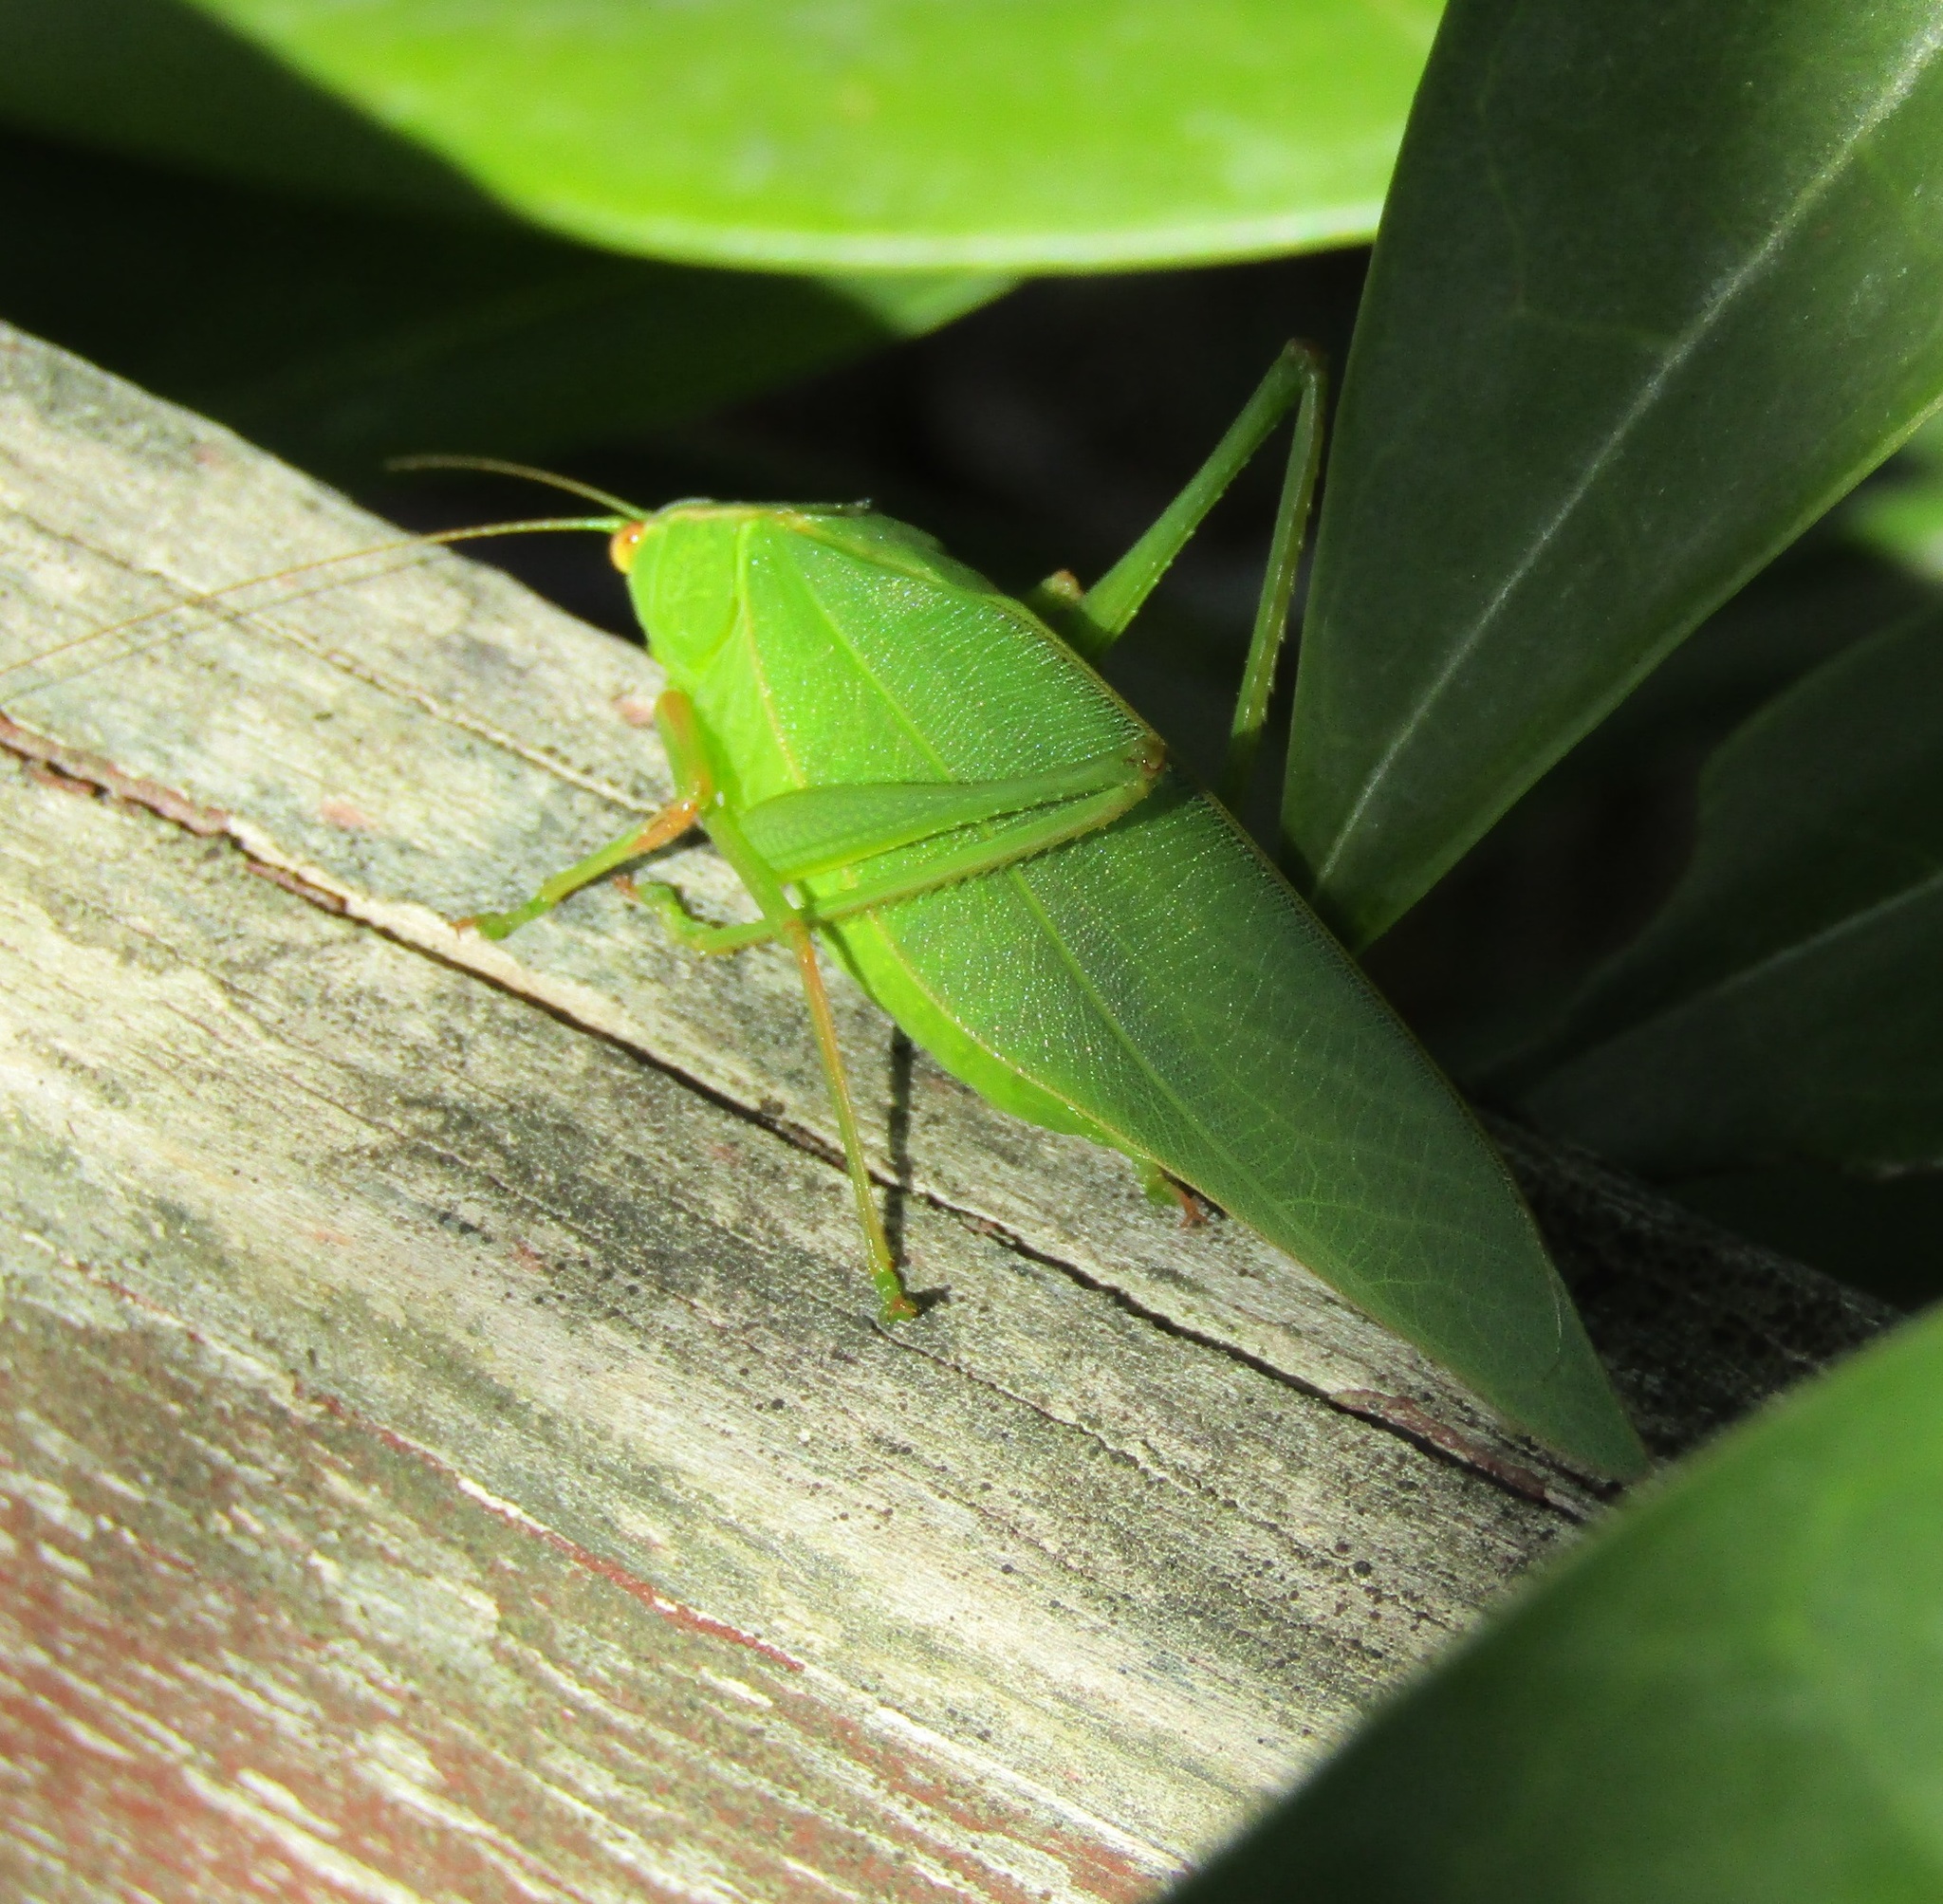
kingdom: Animalia
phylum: Arthropoda
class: Insecta
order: Orthoptera
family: Tettigoniidae
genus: Caedicia
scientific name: Caedicia simplex
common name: Common garden katydid
